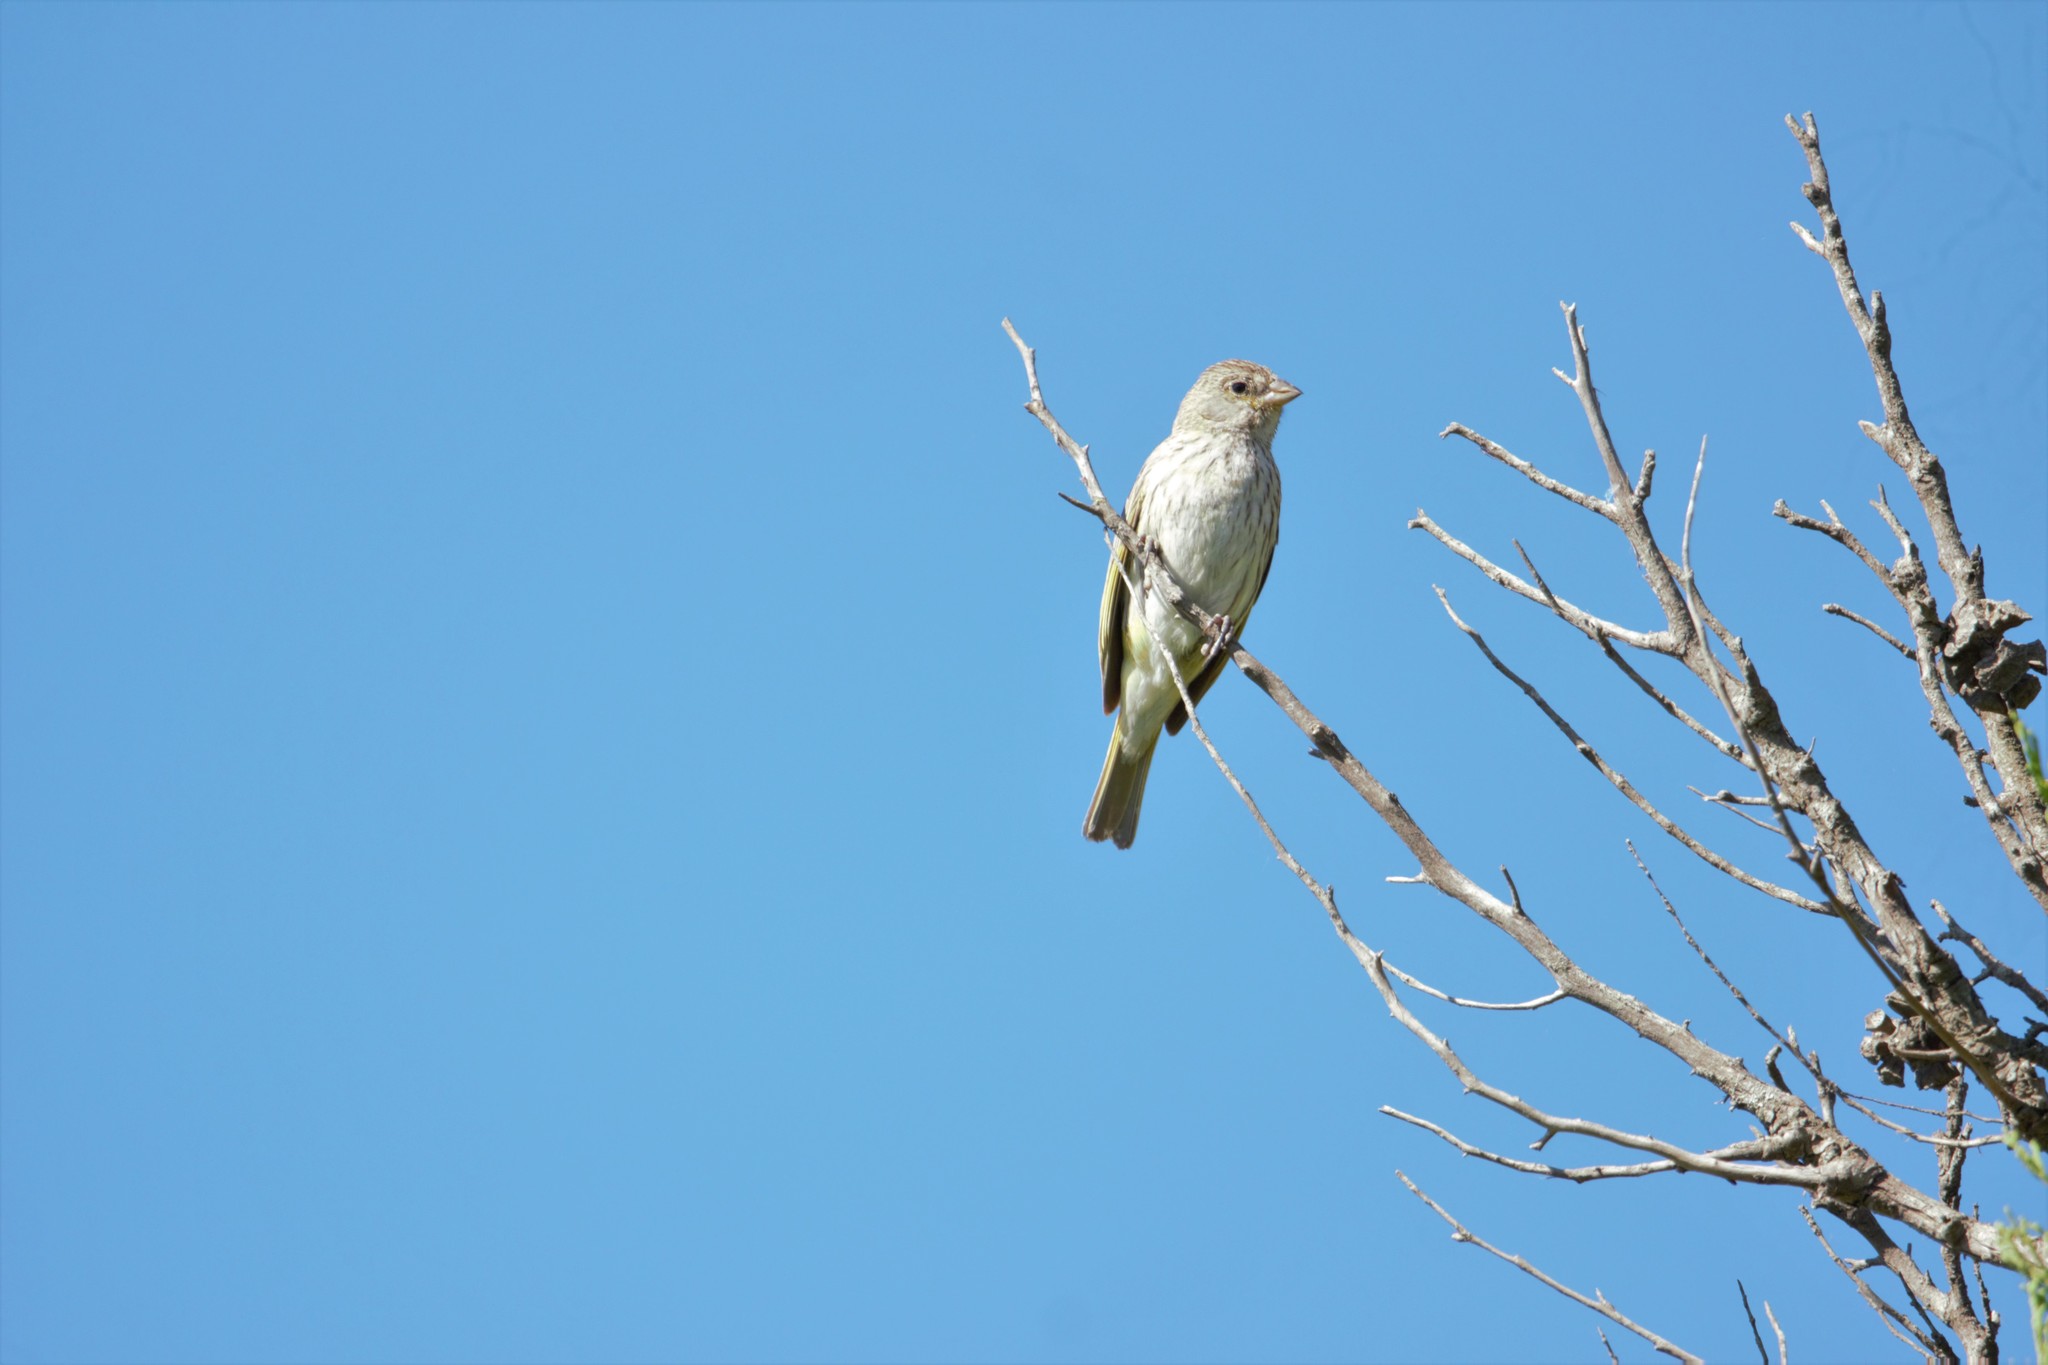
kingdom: Animalia
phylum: Chordata
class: Aves
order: Passeriformes
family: Thraupidae
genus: Sicalis
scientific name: Sicalis flaveola
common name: Saffron finch
